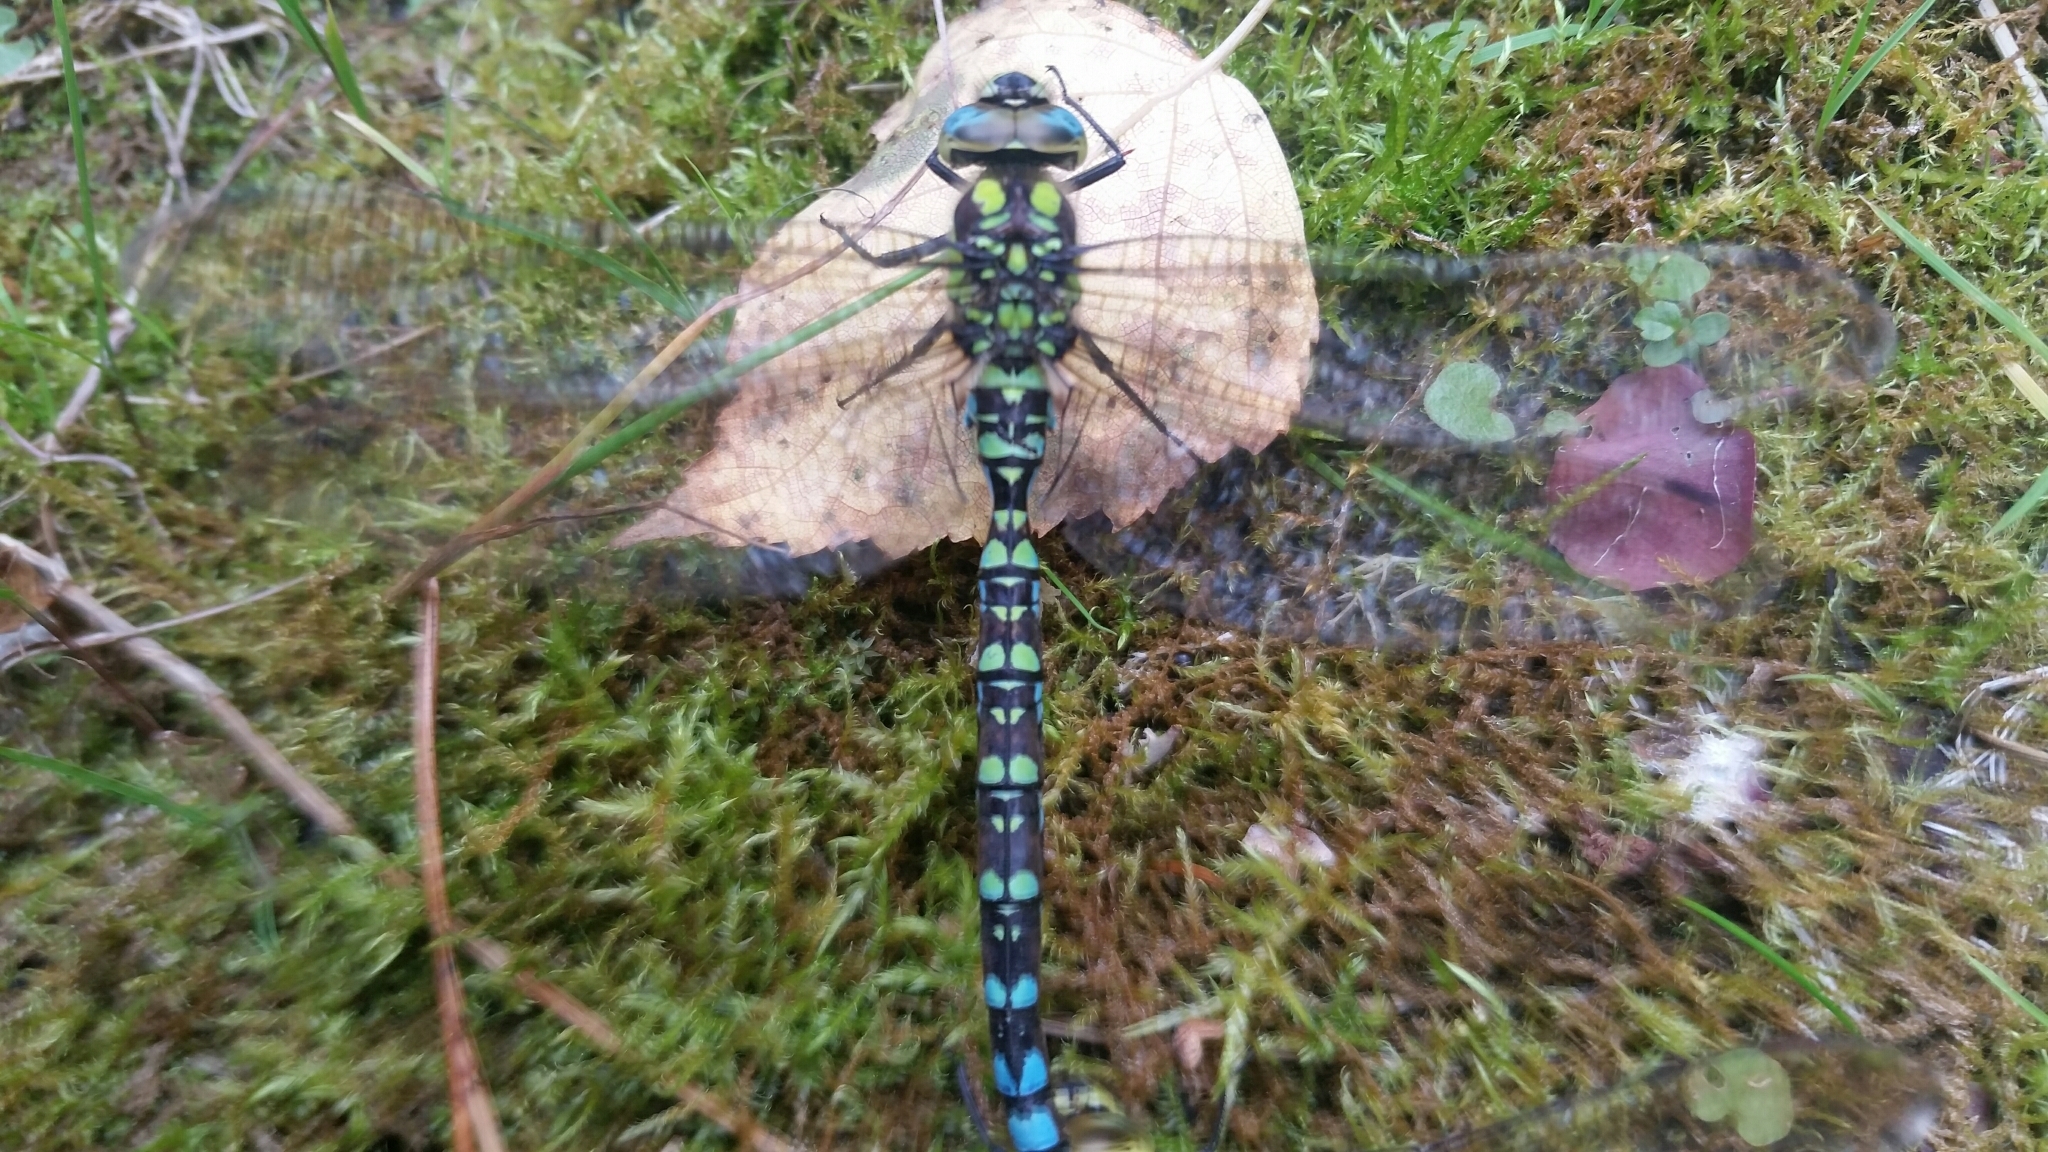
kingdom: Animalia
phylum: Arthropoda
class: Insecta
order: Odonata
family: Aeshnidae
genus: Aeshna
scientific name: Aeshna cyanea
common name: Southern hawker
